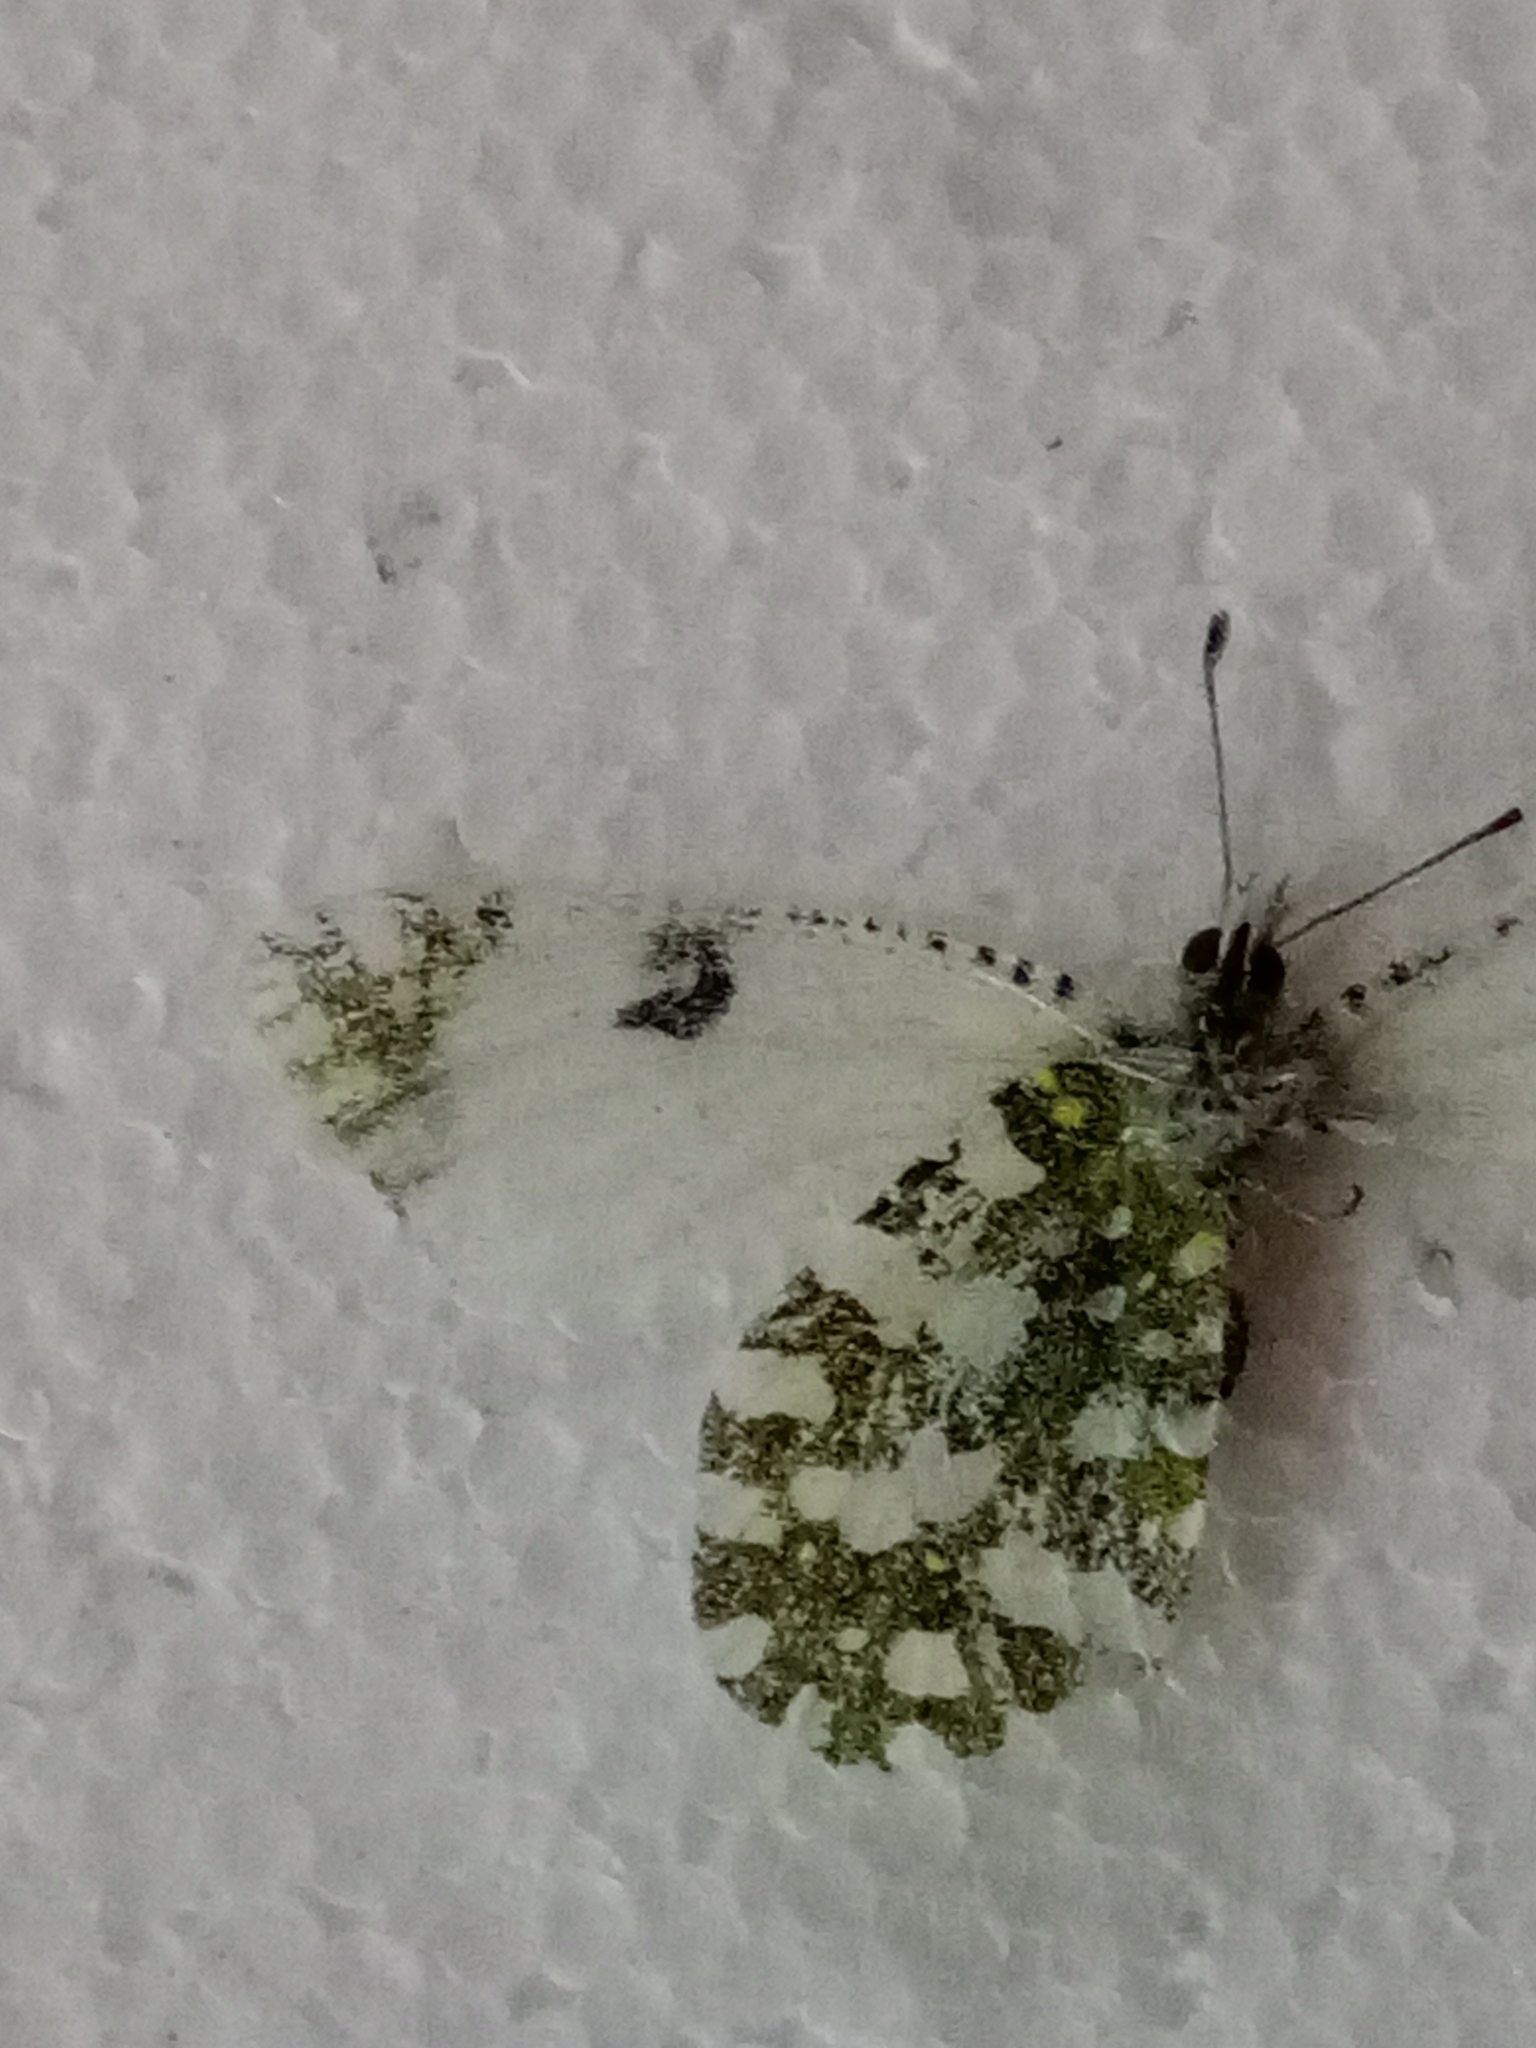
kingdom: Animalia
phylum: Arthropoda
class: Insecta
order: Lepidoptera
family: Pieridae
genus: Euchloe
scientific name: Euchloe crameri
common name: Western dappled white
